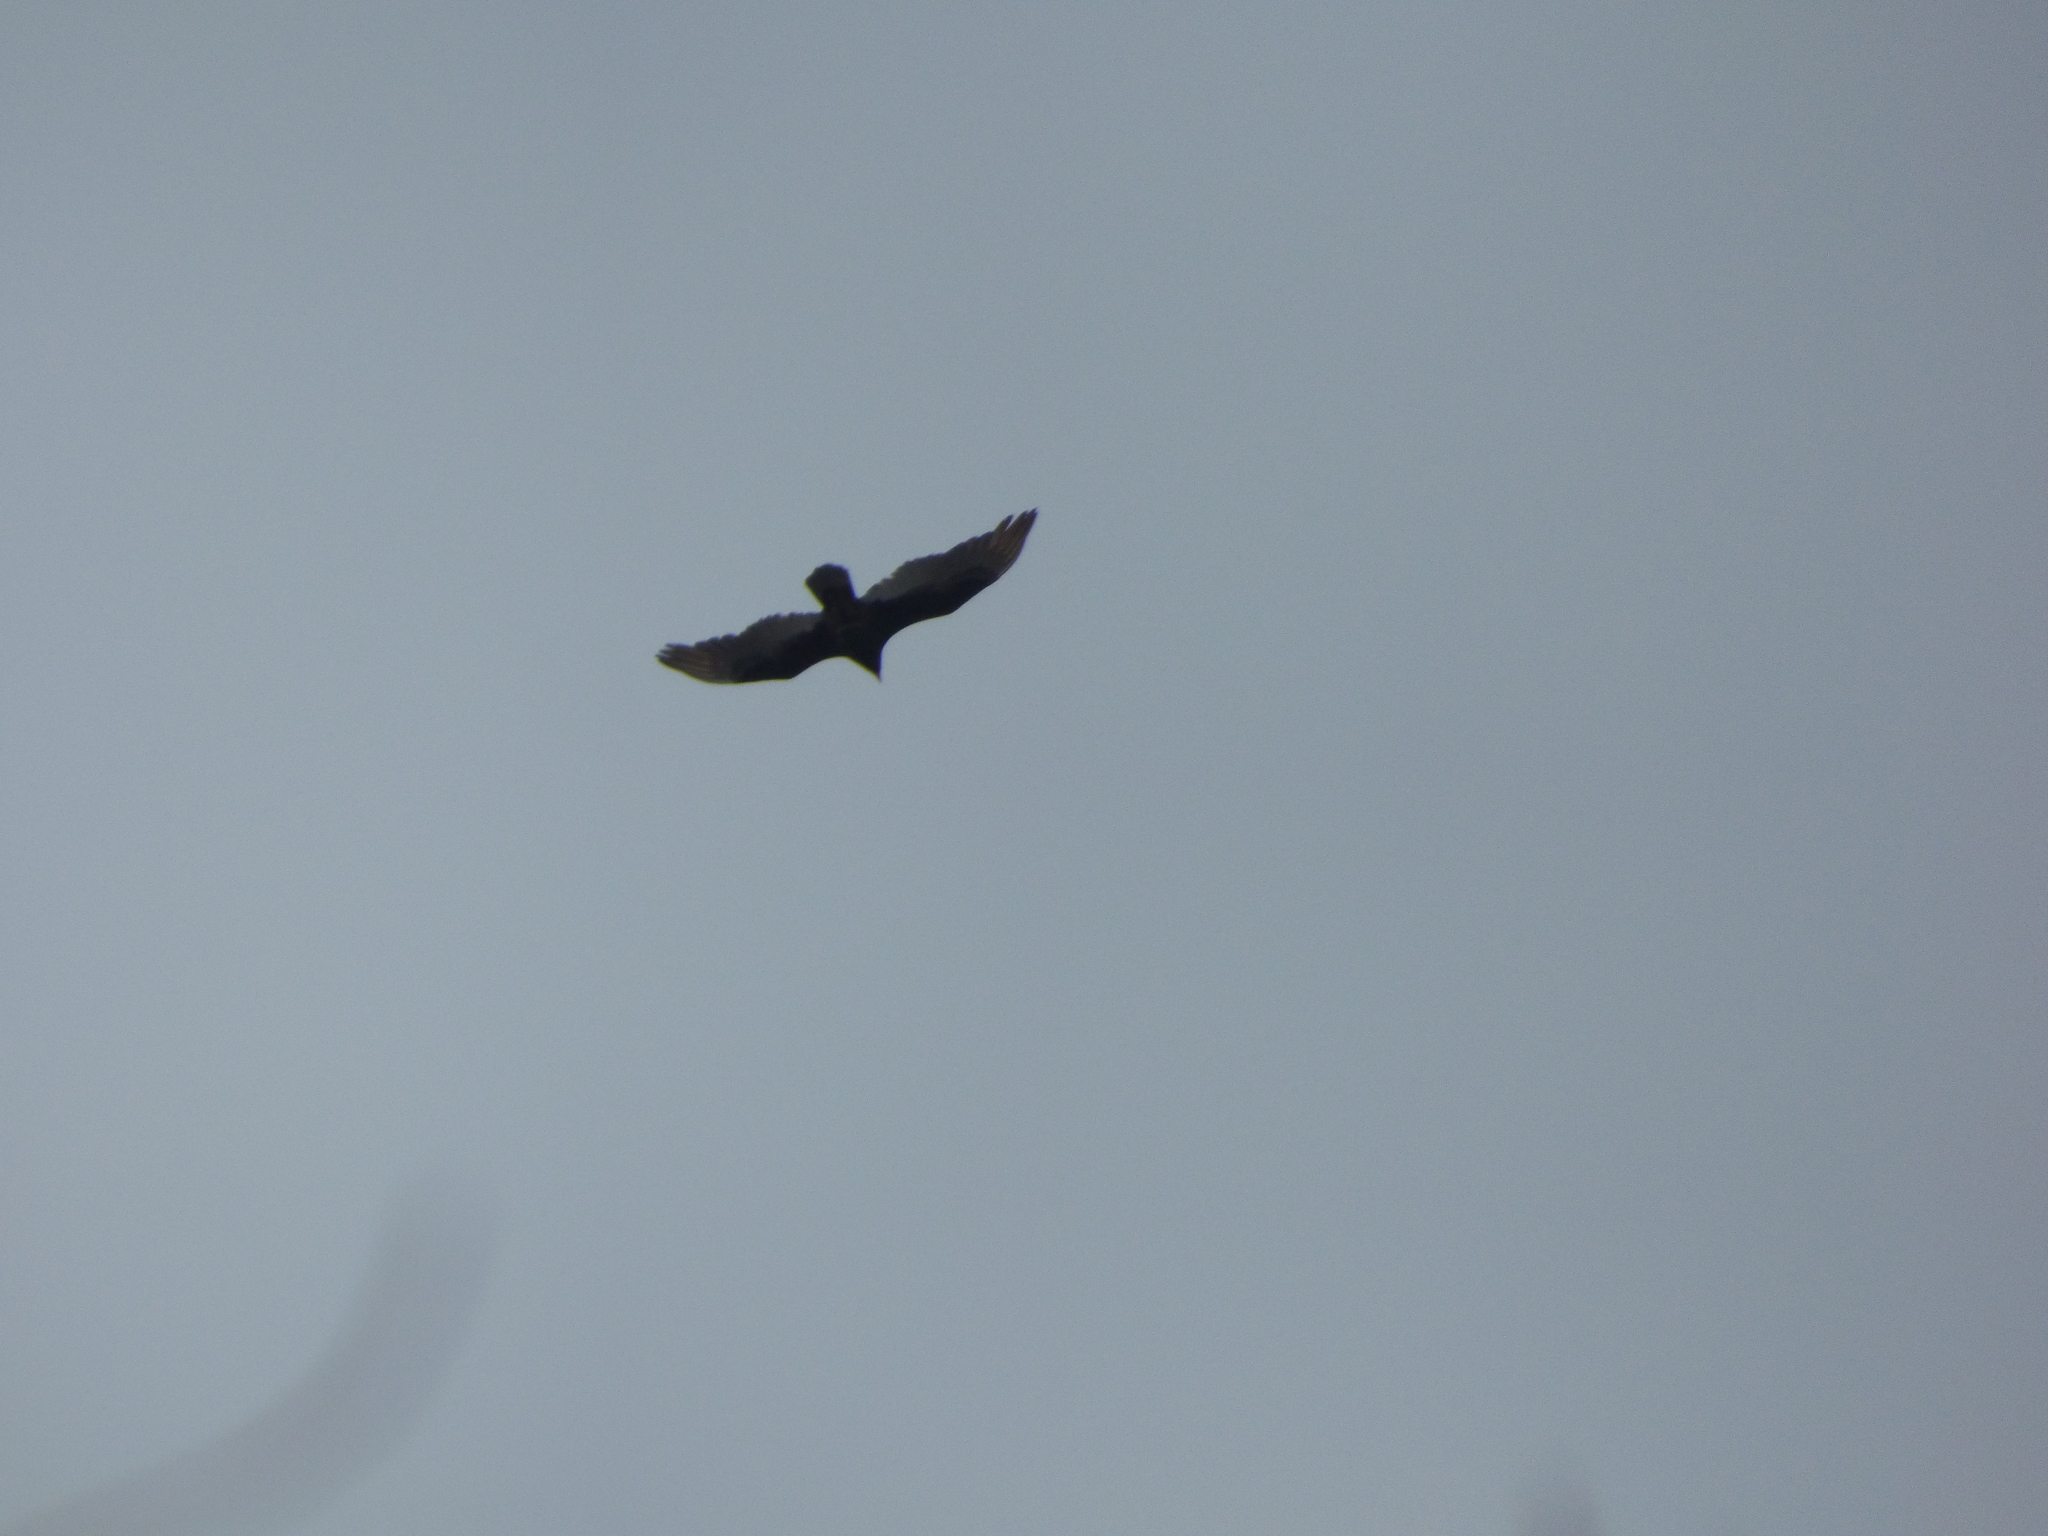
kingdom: Animalia
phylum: Chordata
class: Aves
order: Accipitriformes
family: Cathartidae
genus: Cathartes
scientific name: Cathartes aura
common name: Turkey vulture
